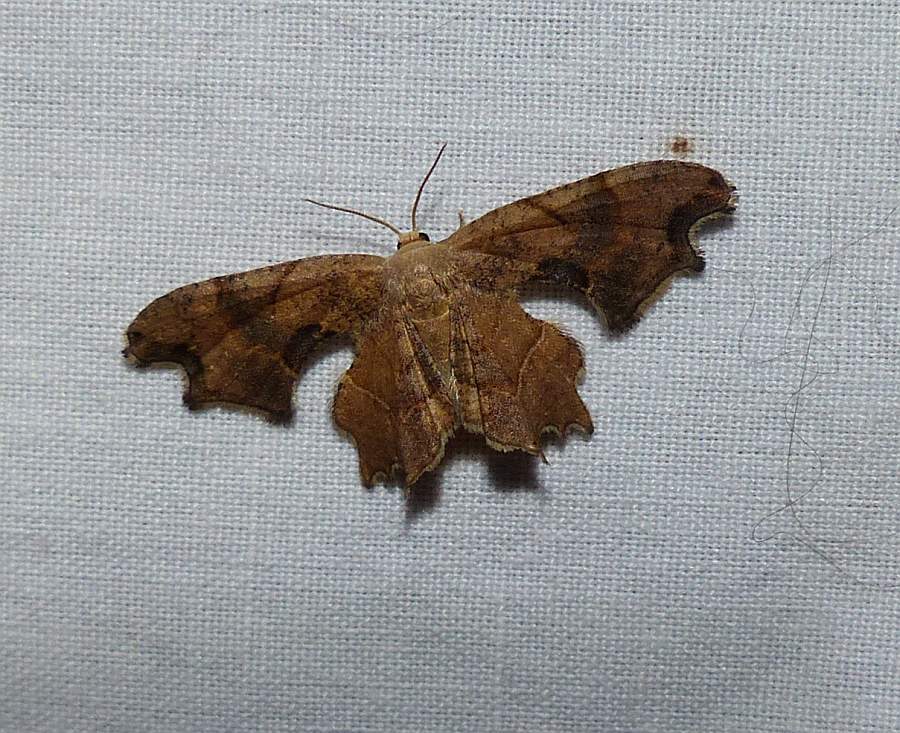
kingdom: Animalia
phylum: Arthropoda
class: Insecta
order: Lepidoptera
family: Uraniidae
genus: Epiplema
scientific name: Epiplema Calledapteryx dryopterata
